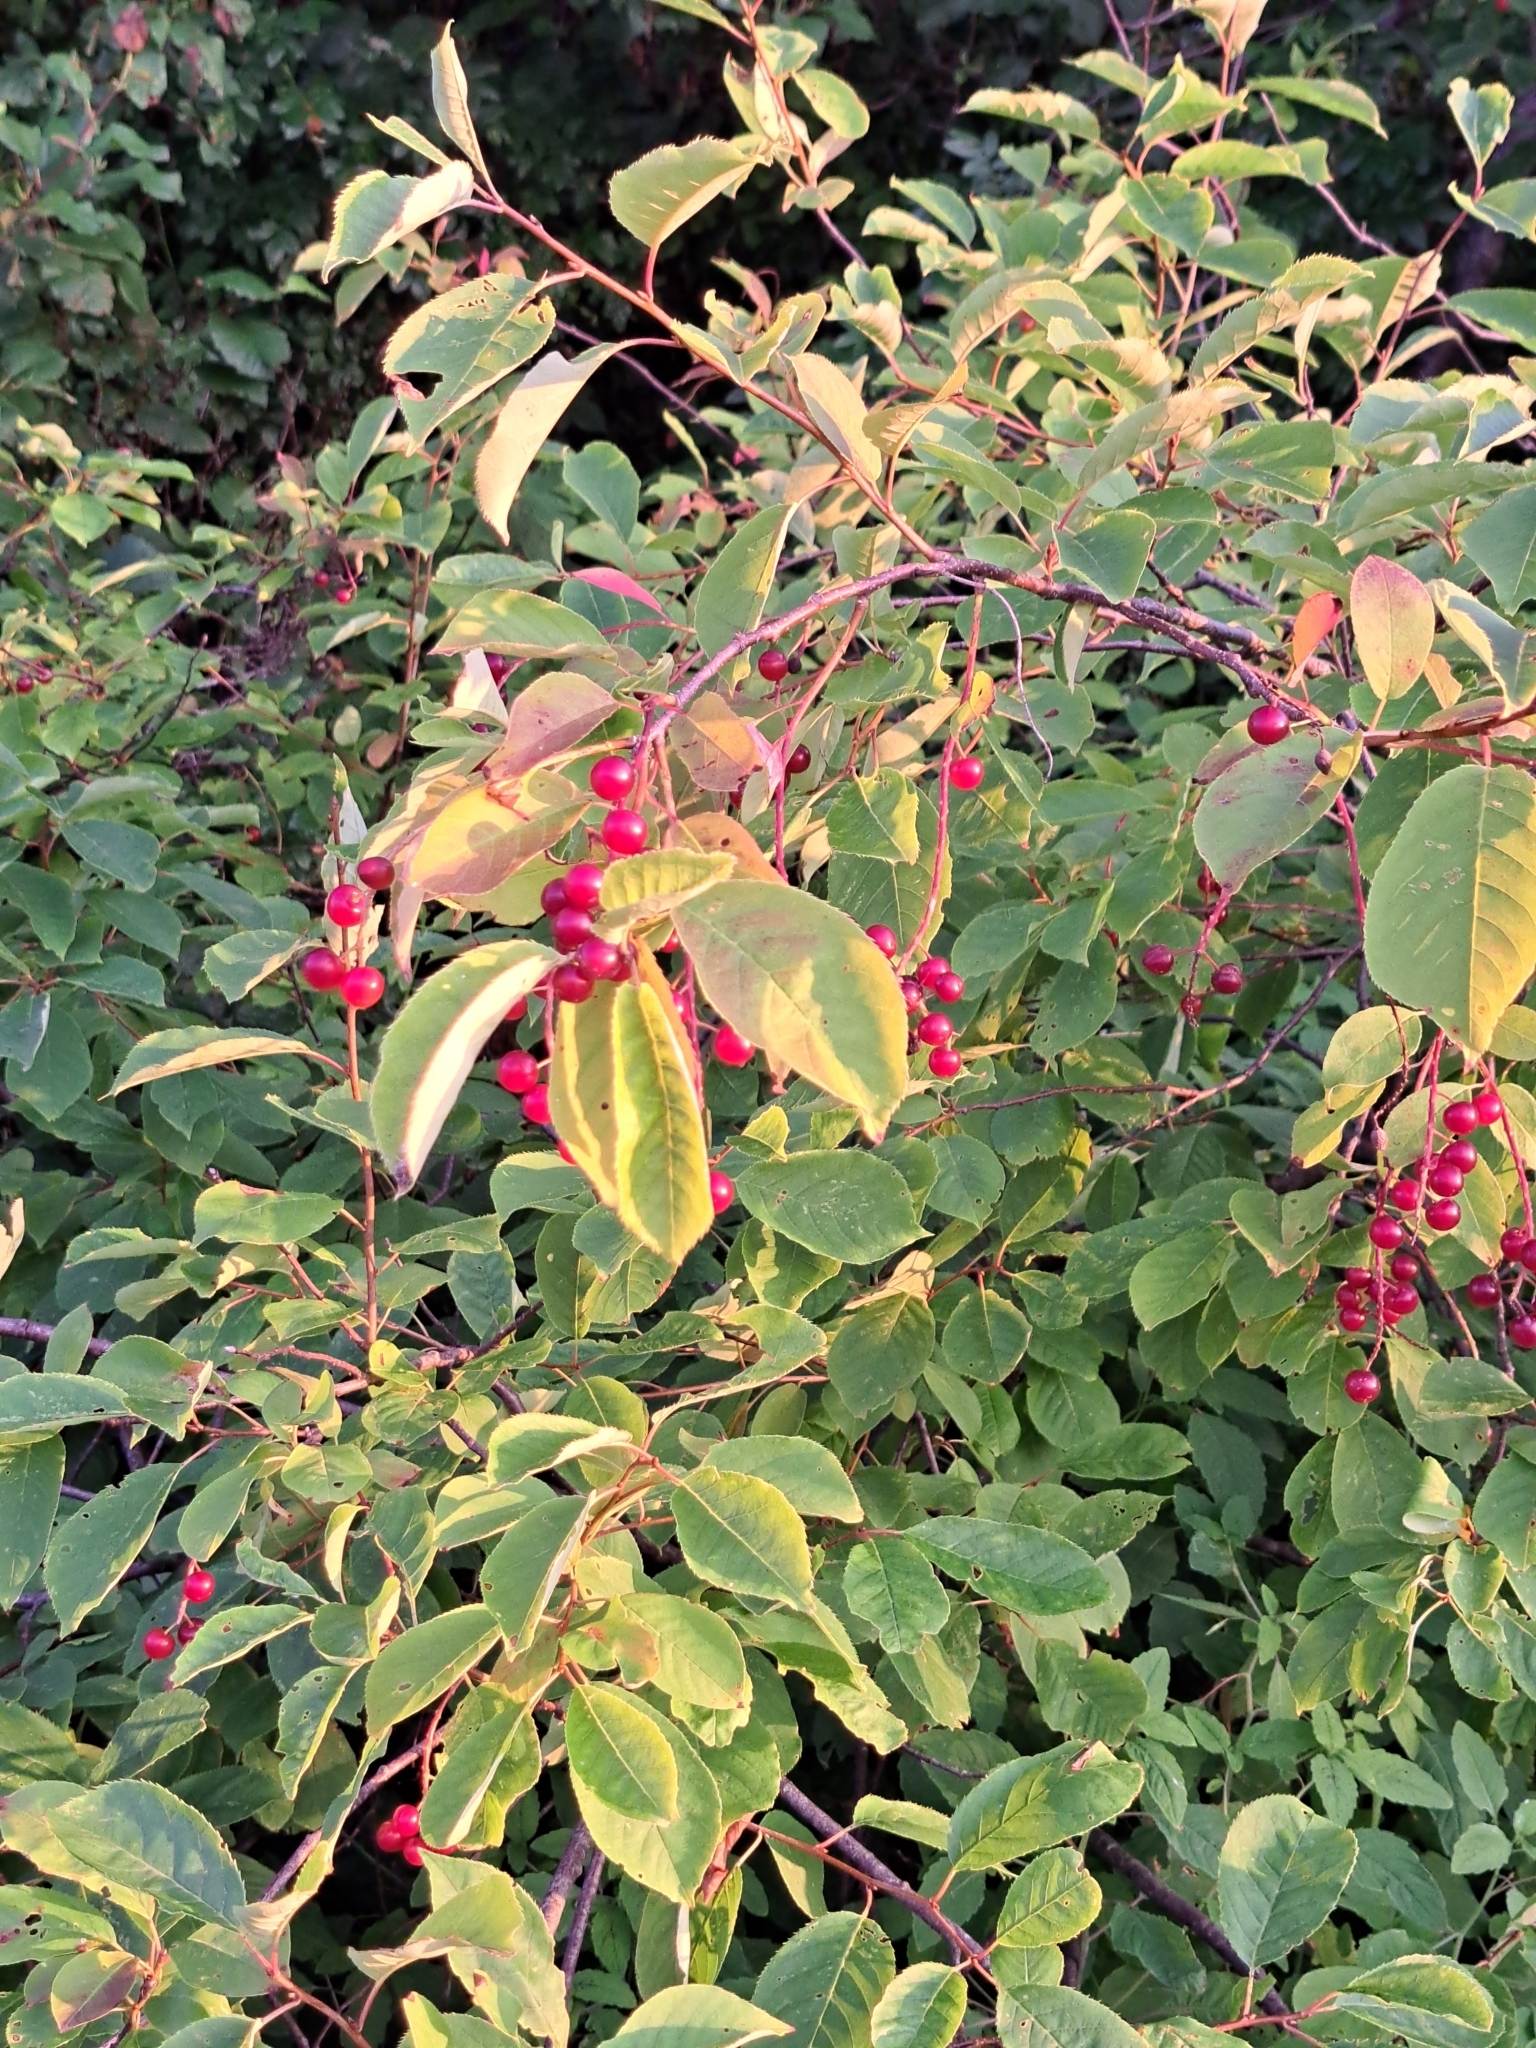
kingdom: Plantae
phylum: Tracheophyta
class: Magnoliopsida
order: Rosales
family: Rosaceae
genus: Prunus
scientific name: Prunus virginiana
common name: Chokecherry
